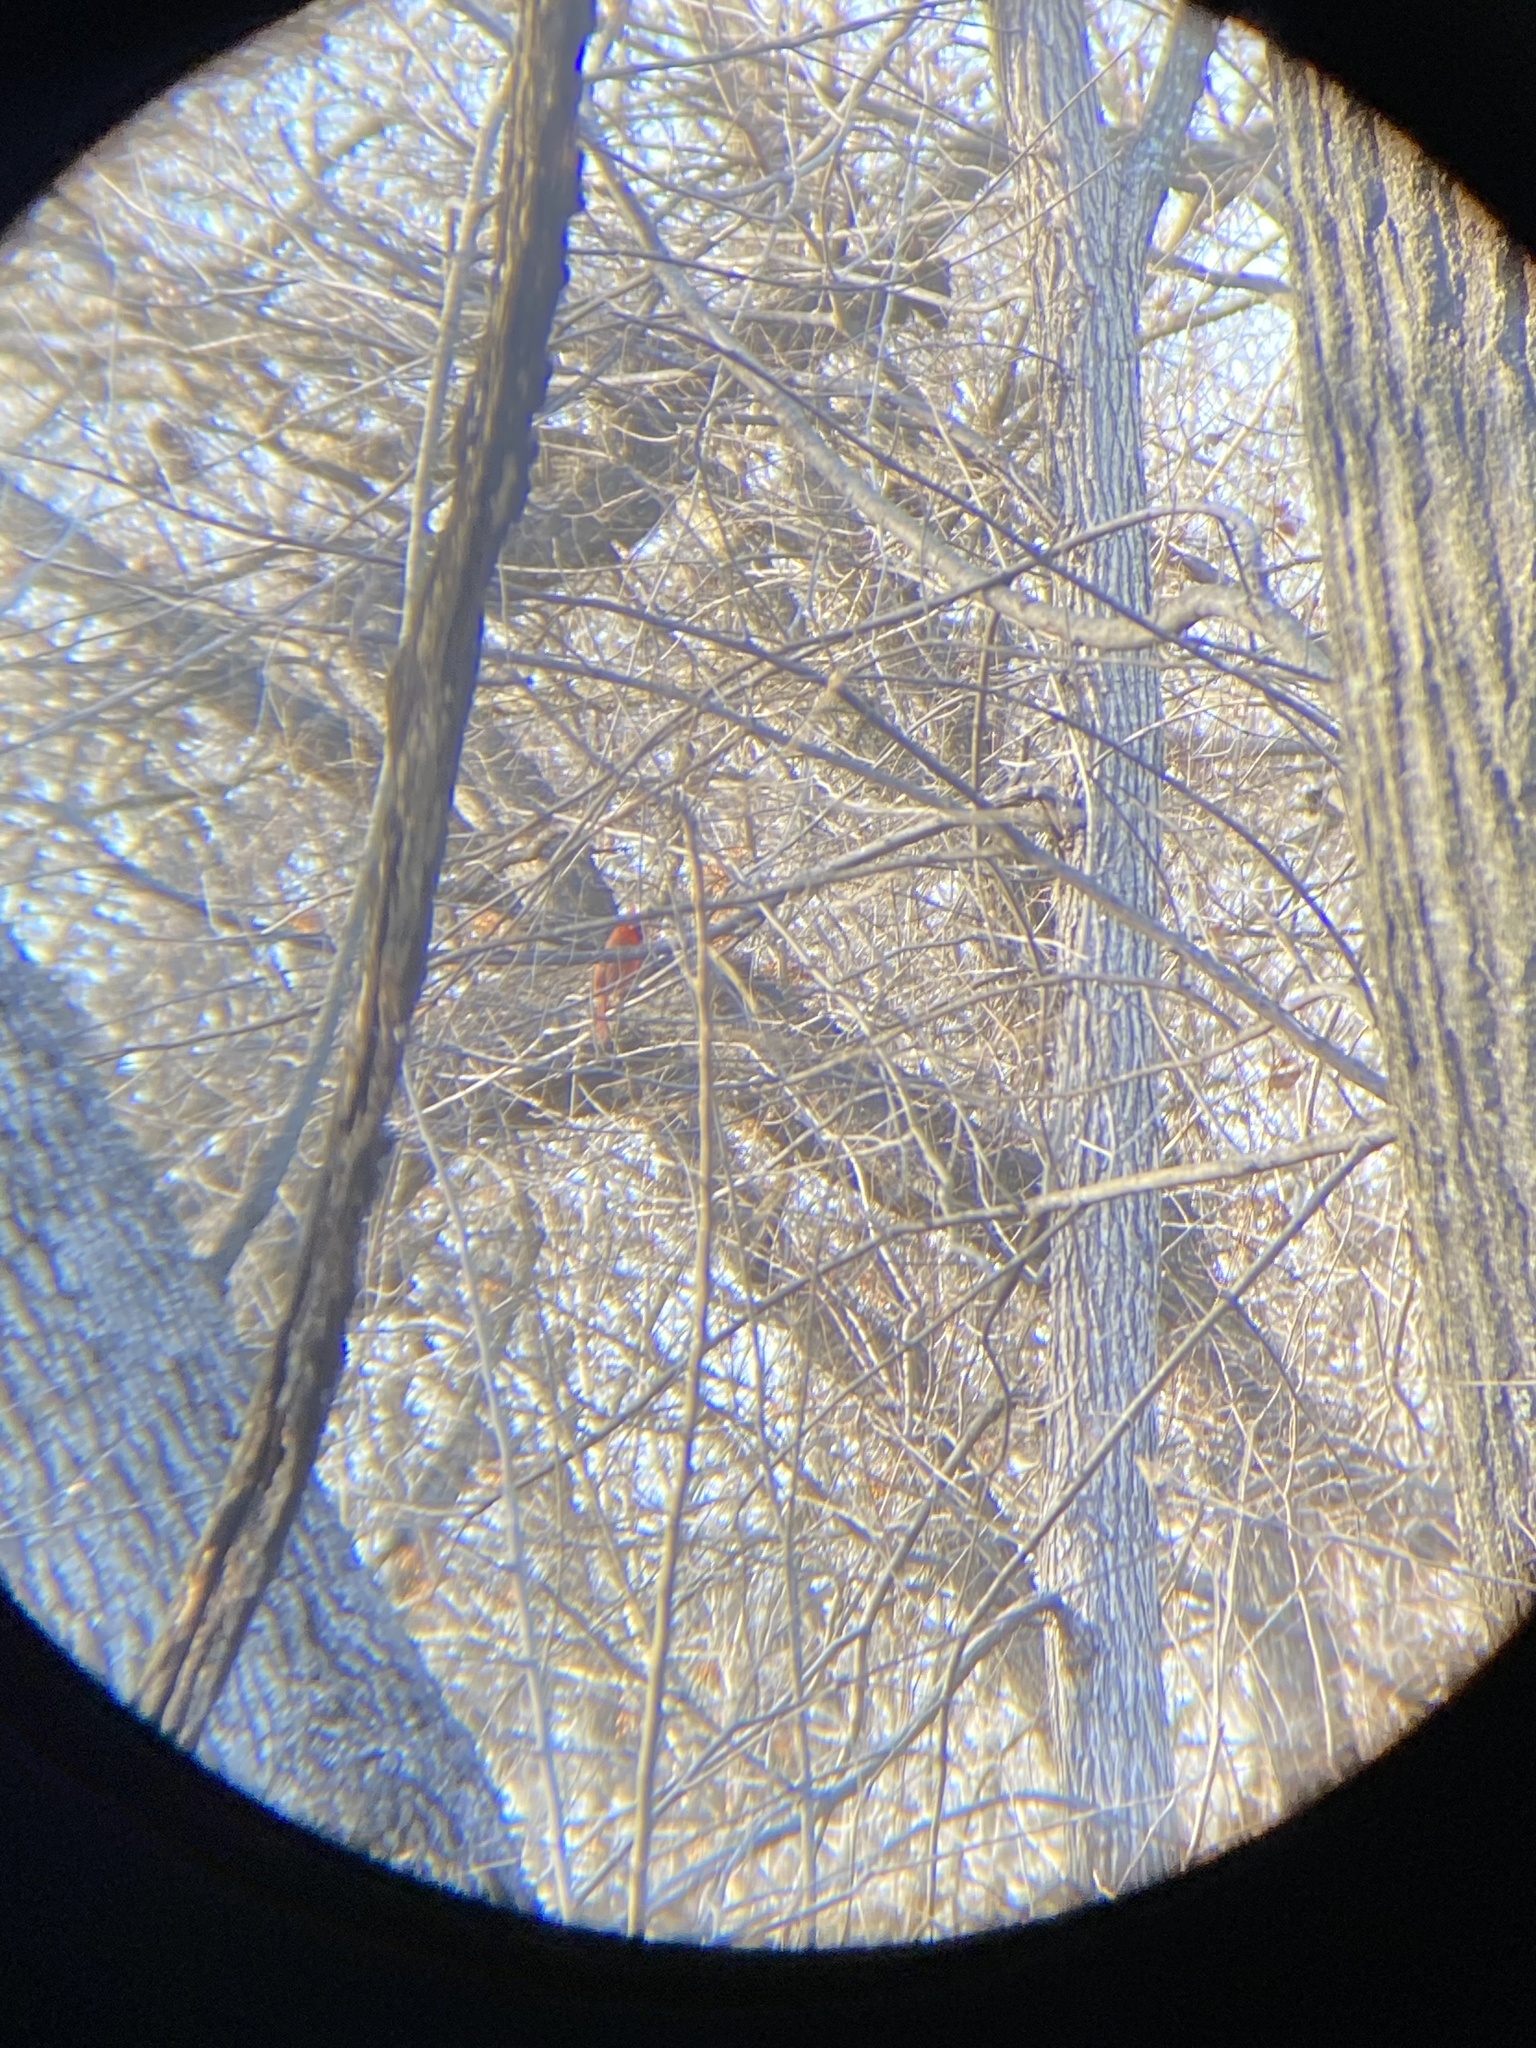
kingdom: Animalia
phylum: Chordata
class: Aves
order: Passeriformes
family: Cardinalidae
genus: Cardinalis
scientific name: Cardinalis cardinalis
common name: Northern cardinal
